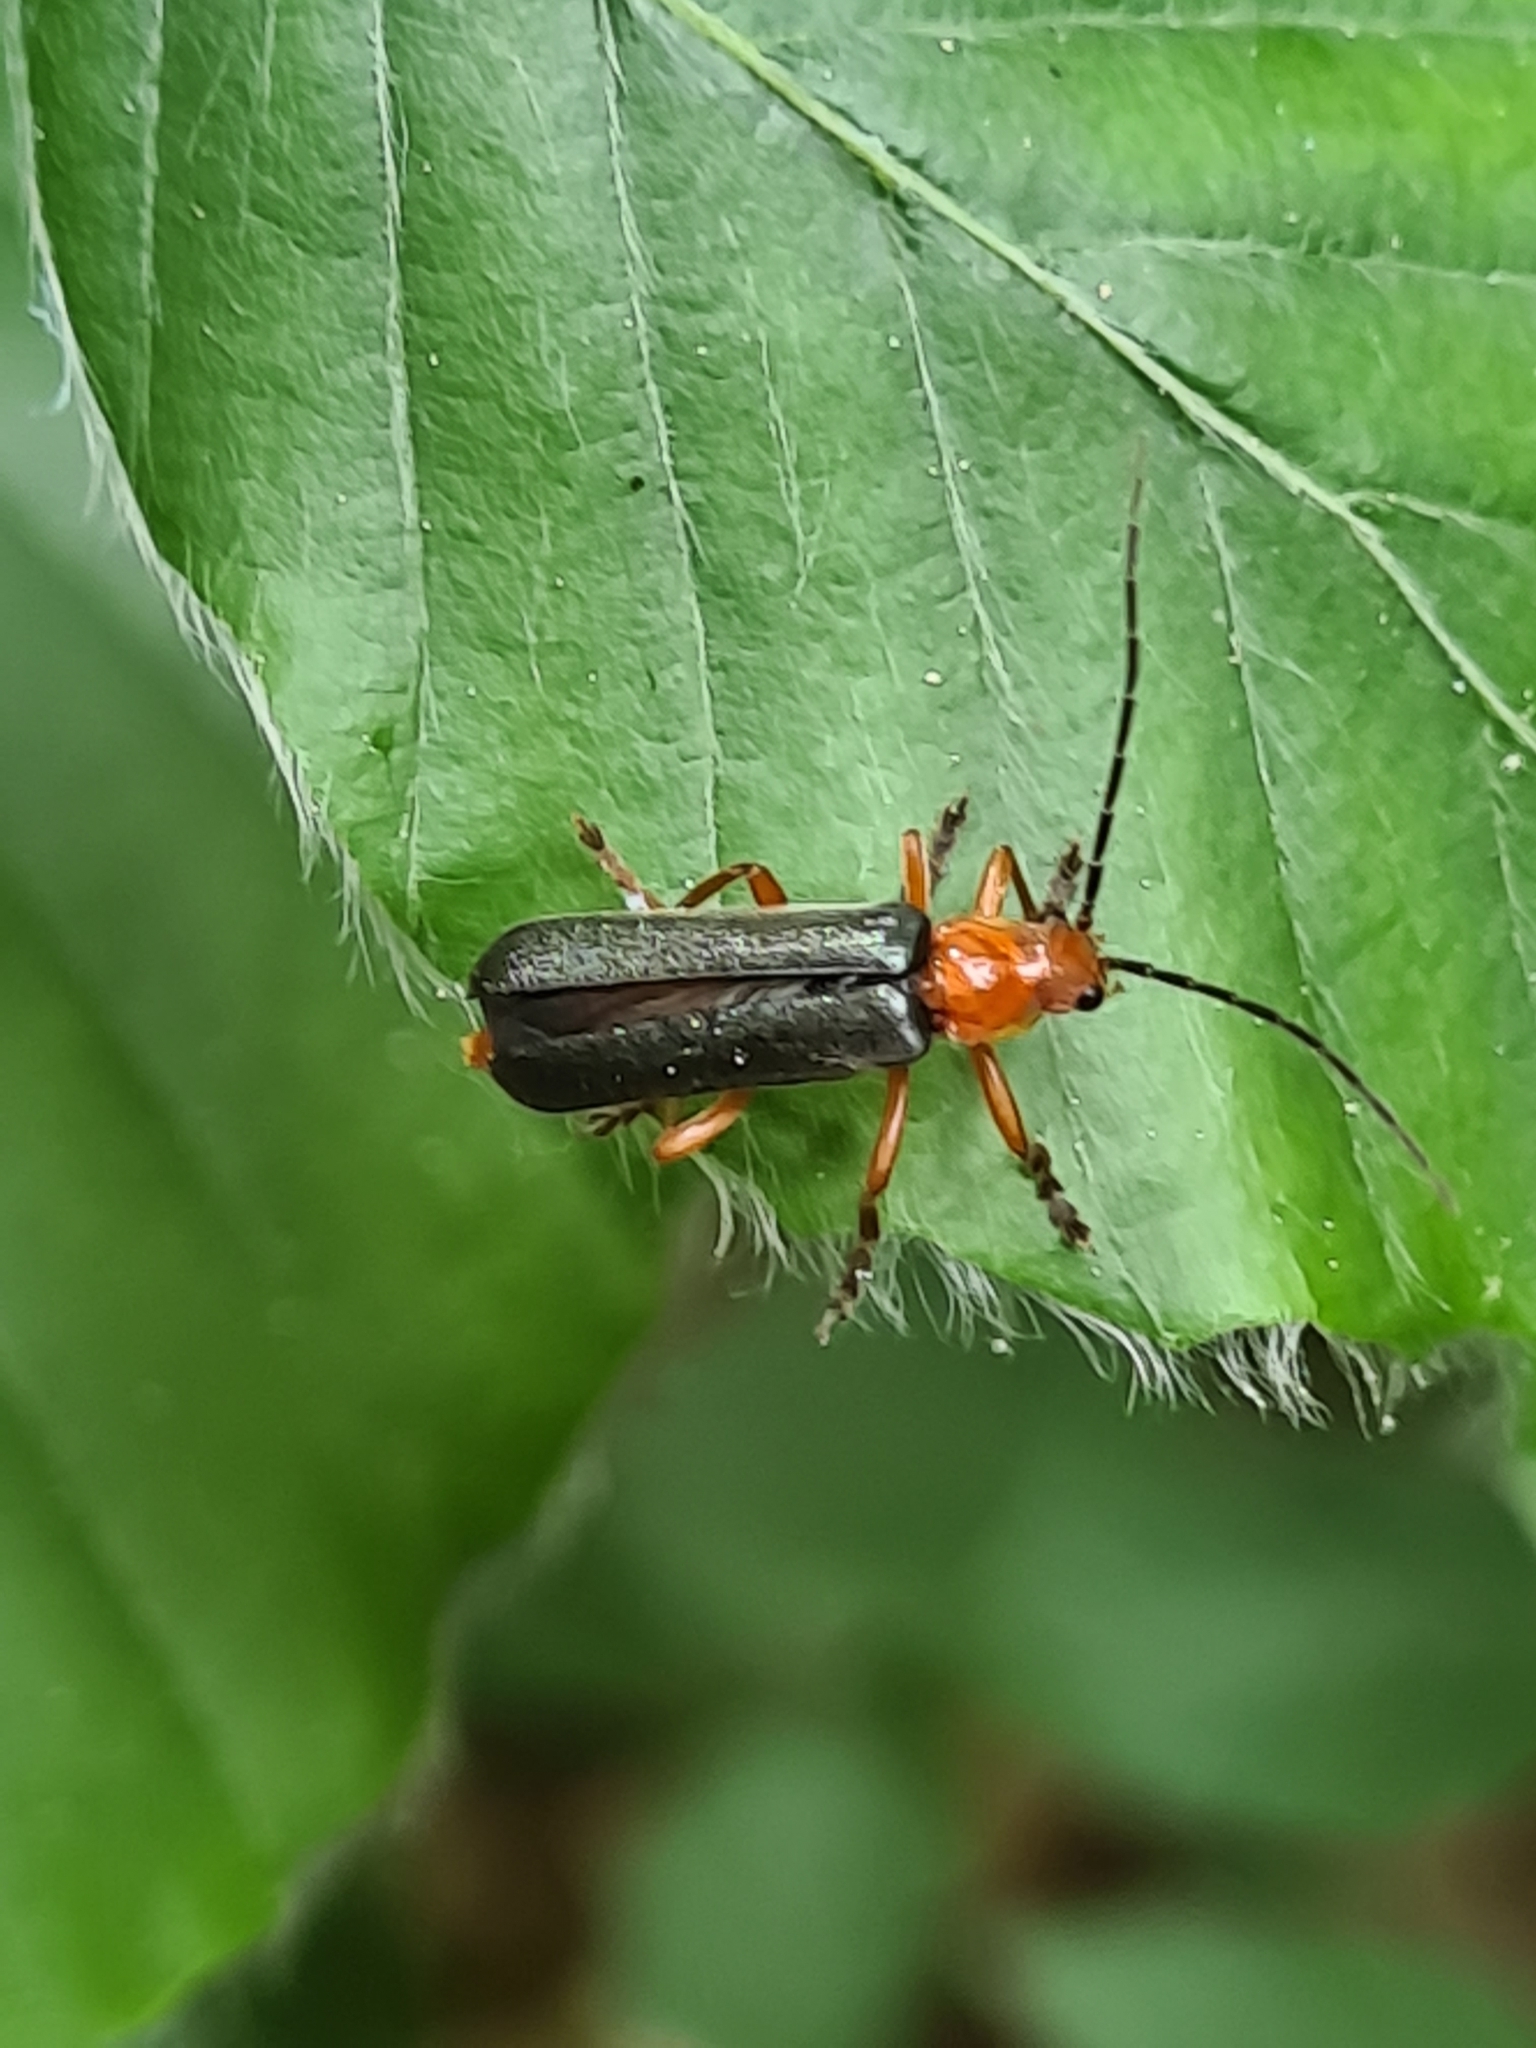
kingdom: Animalia
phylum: Arthropoda
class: Insecta
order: Coleoptera
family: Cantharidae
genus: Ancistronycha
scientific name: Ancistronycha tigurina
